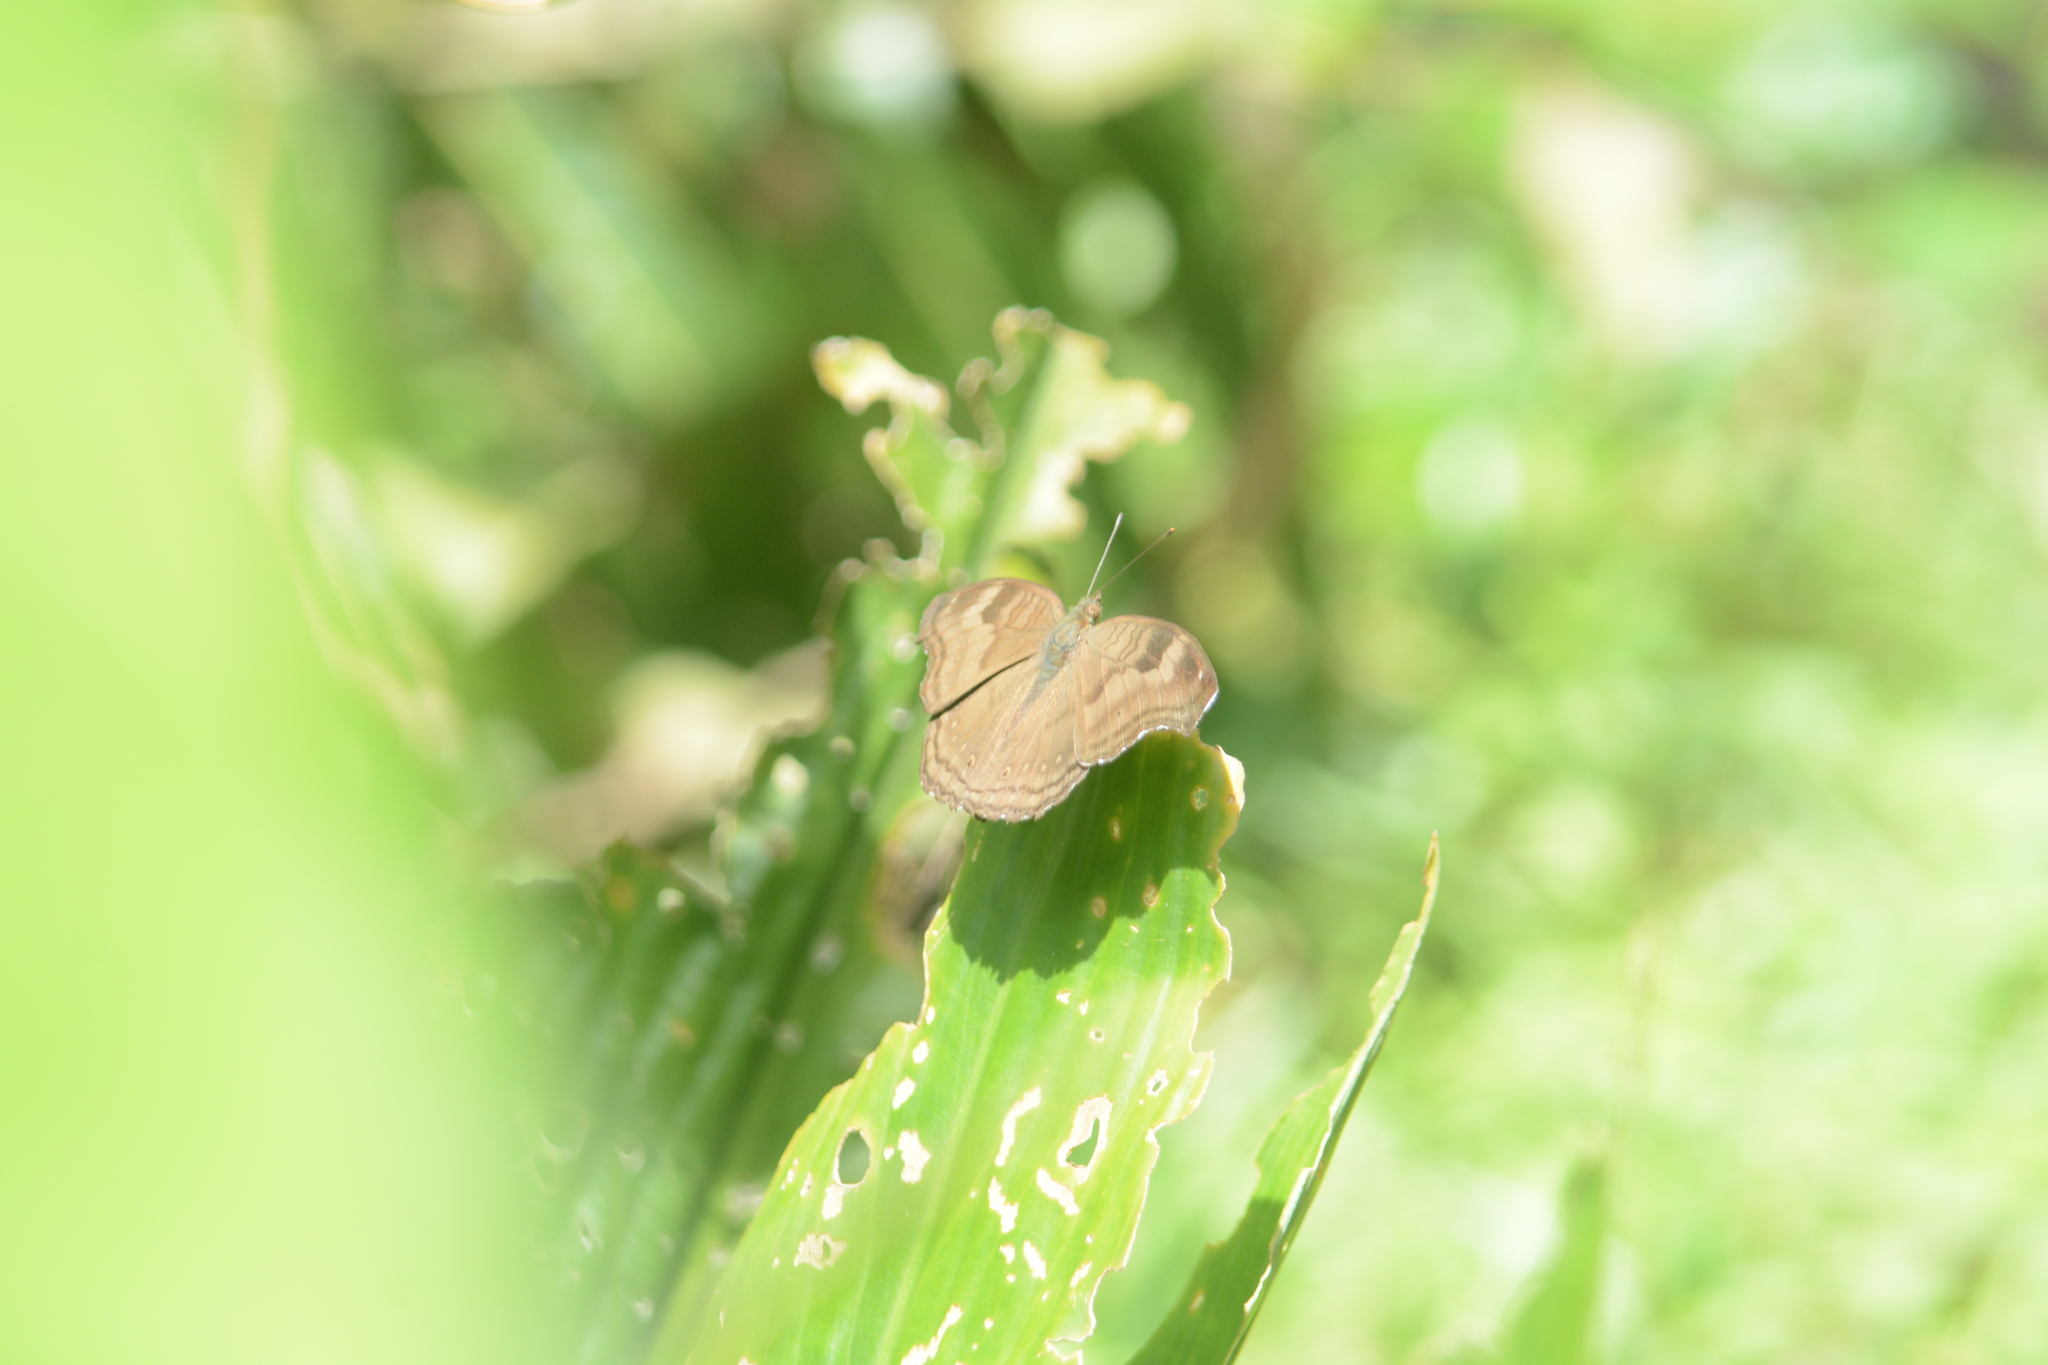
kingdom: Animalia
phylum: Arthropoda
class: Insecta
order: Lepidoptera
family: Nymphalidae
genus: Junonia
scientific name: Junonia iphita
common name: Chocolate pansy
